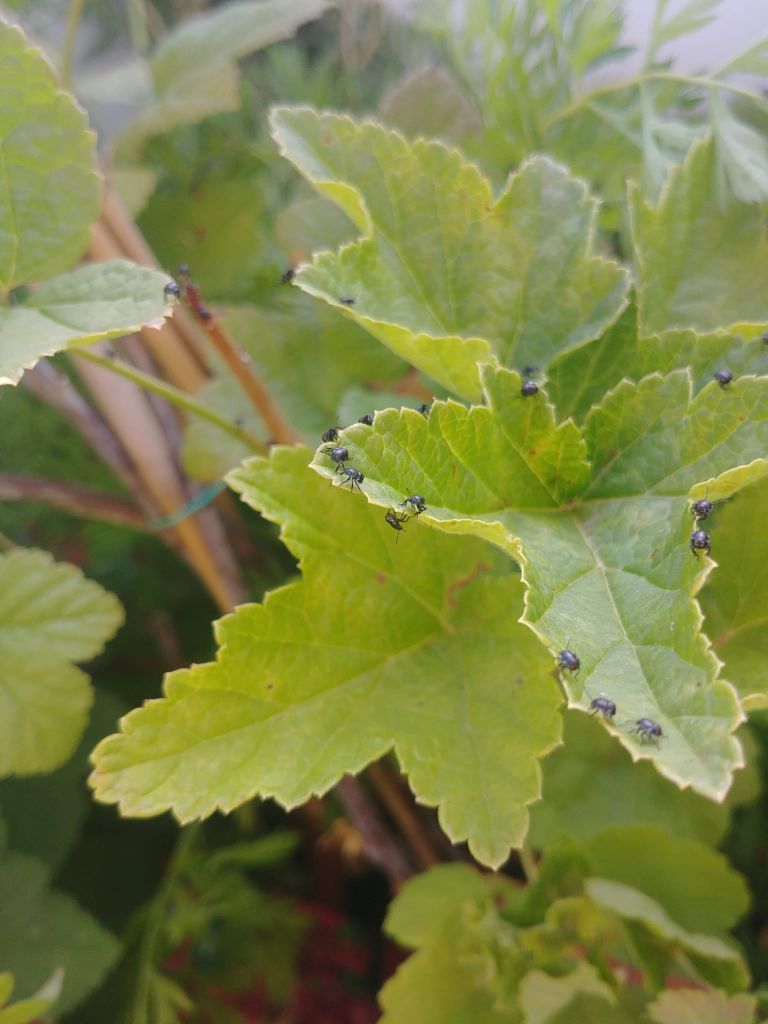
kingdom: Animalia
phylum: Arthropoda
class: Insecta
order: Hemiptera
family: Pentatomidae
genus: Nezara
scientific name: Nezara viridula
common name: Southern green stink bug
